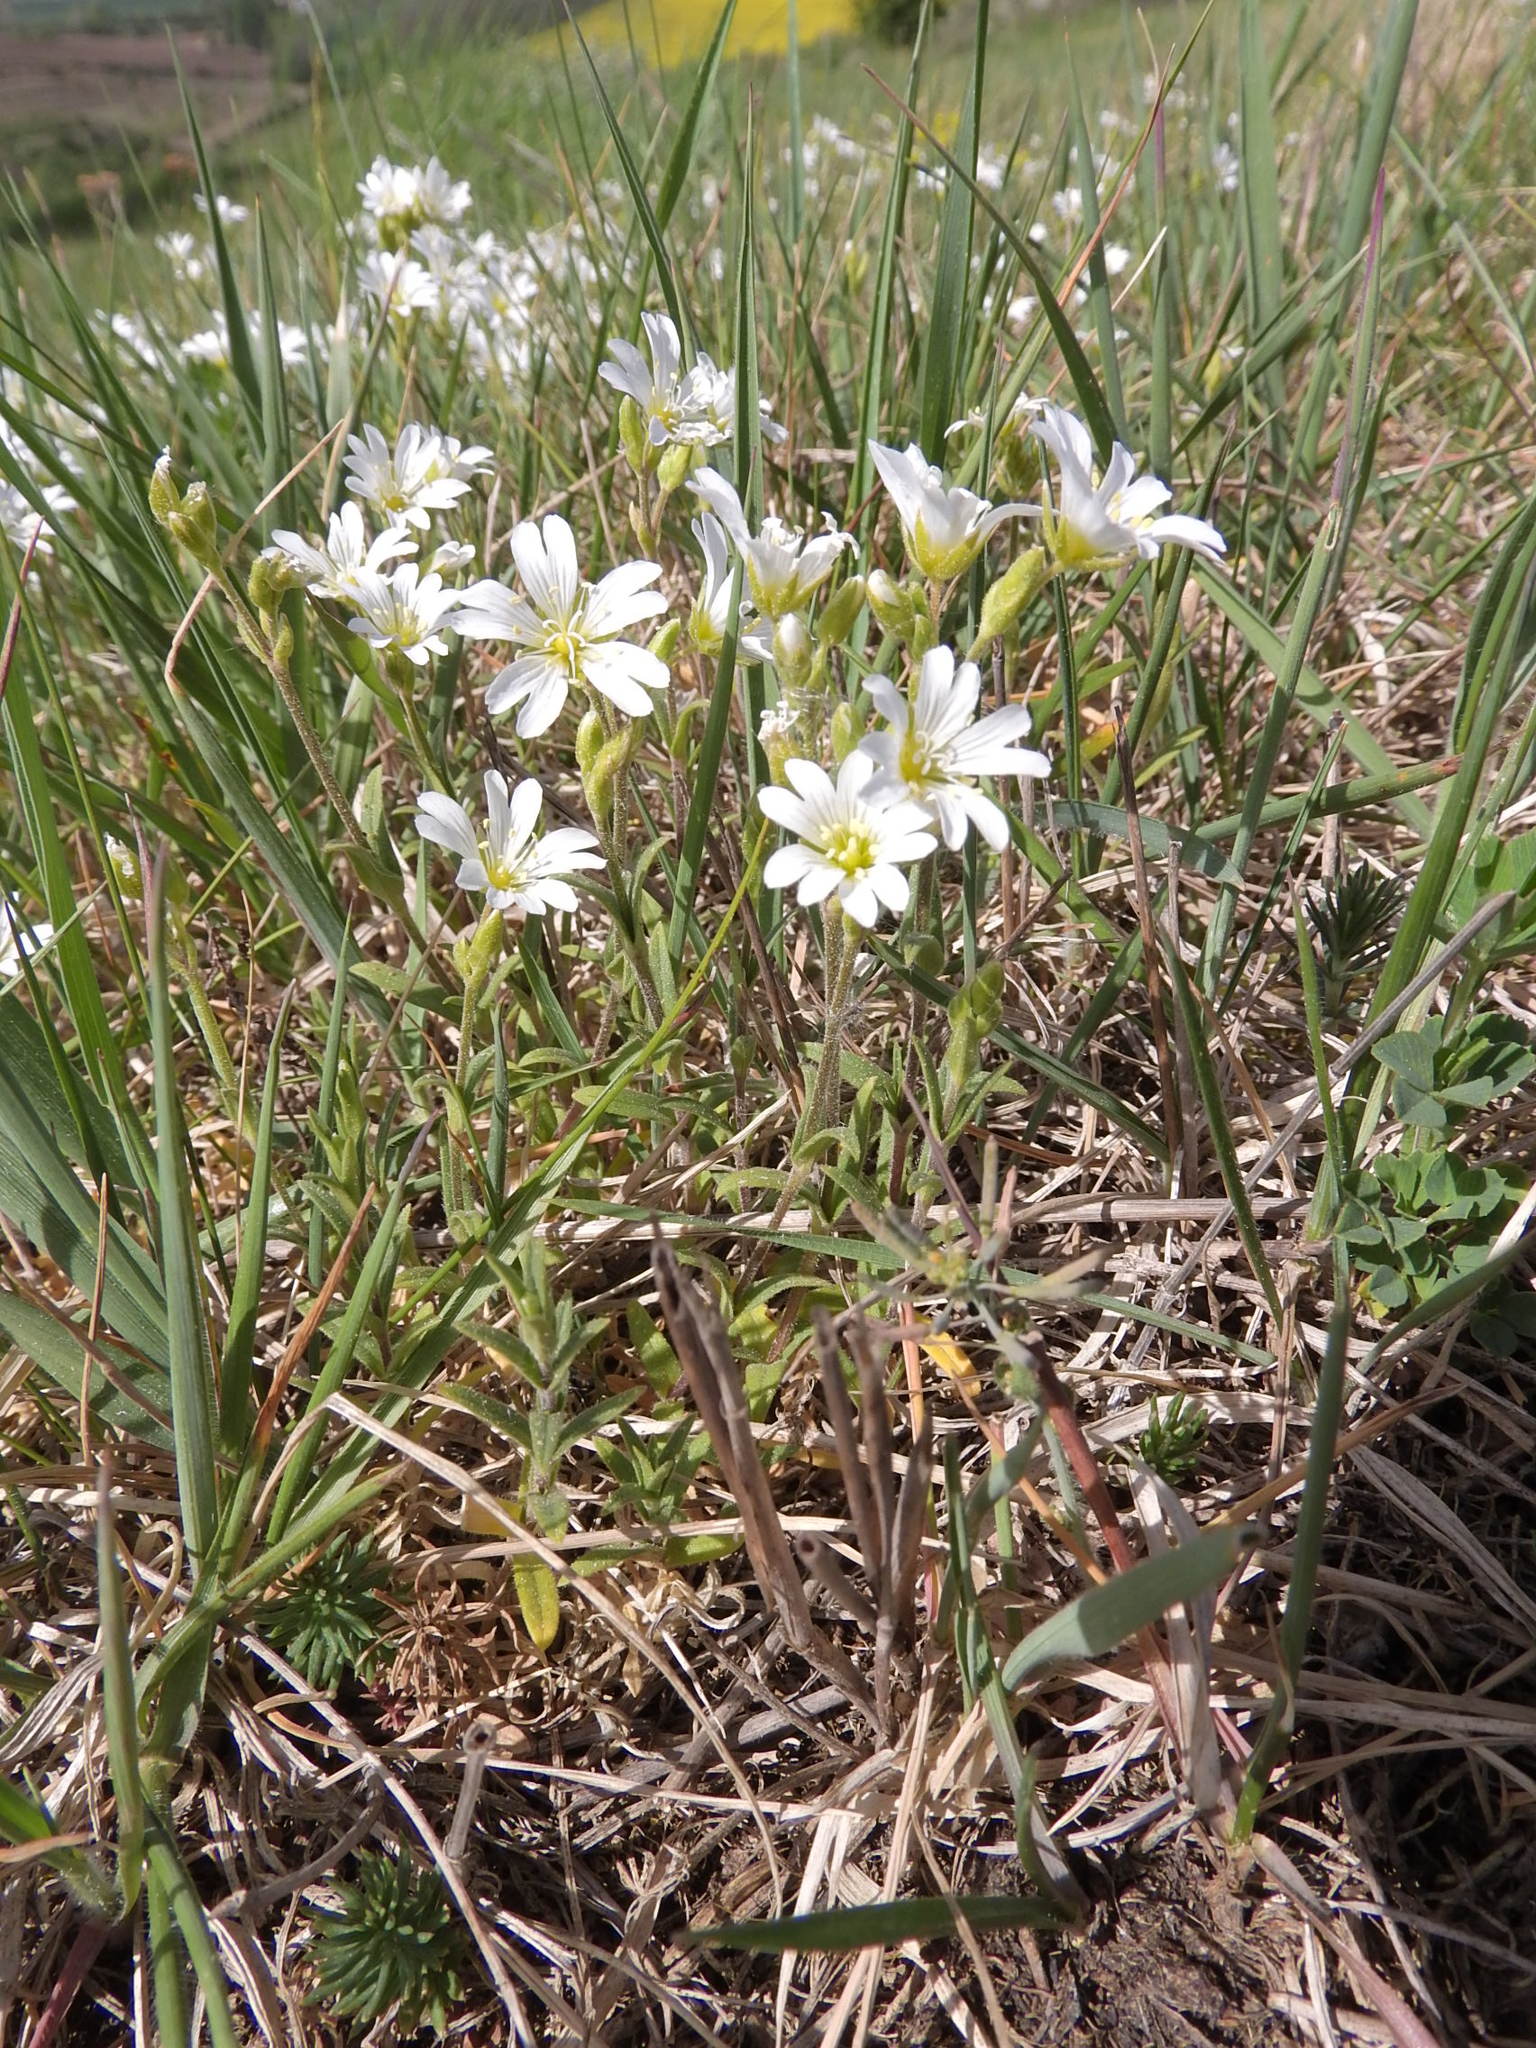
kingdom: Plantae
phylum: Tracheophyta
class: Magnoliopsida
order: Caryophyllales
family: Caryophyllaceae
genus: Cerastium
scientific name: Cerastium arvense
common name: Field mouse-ear
